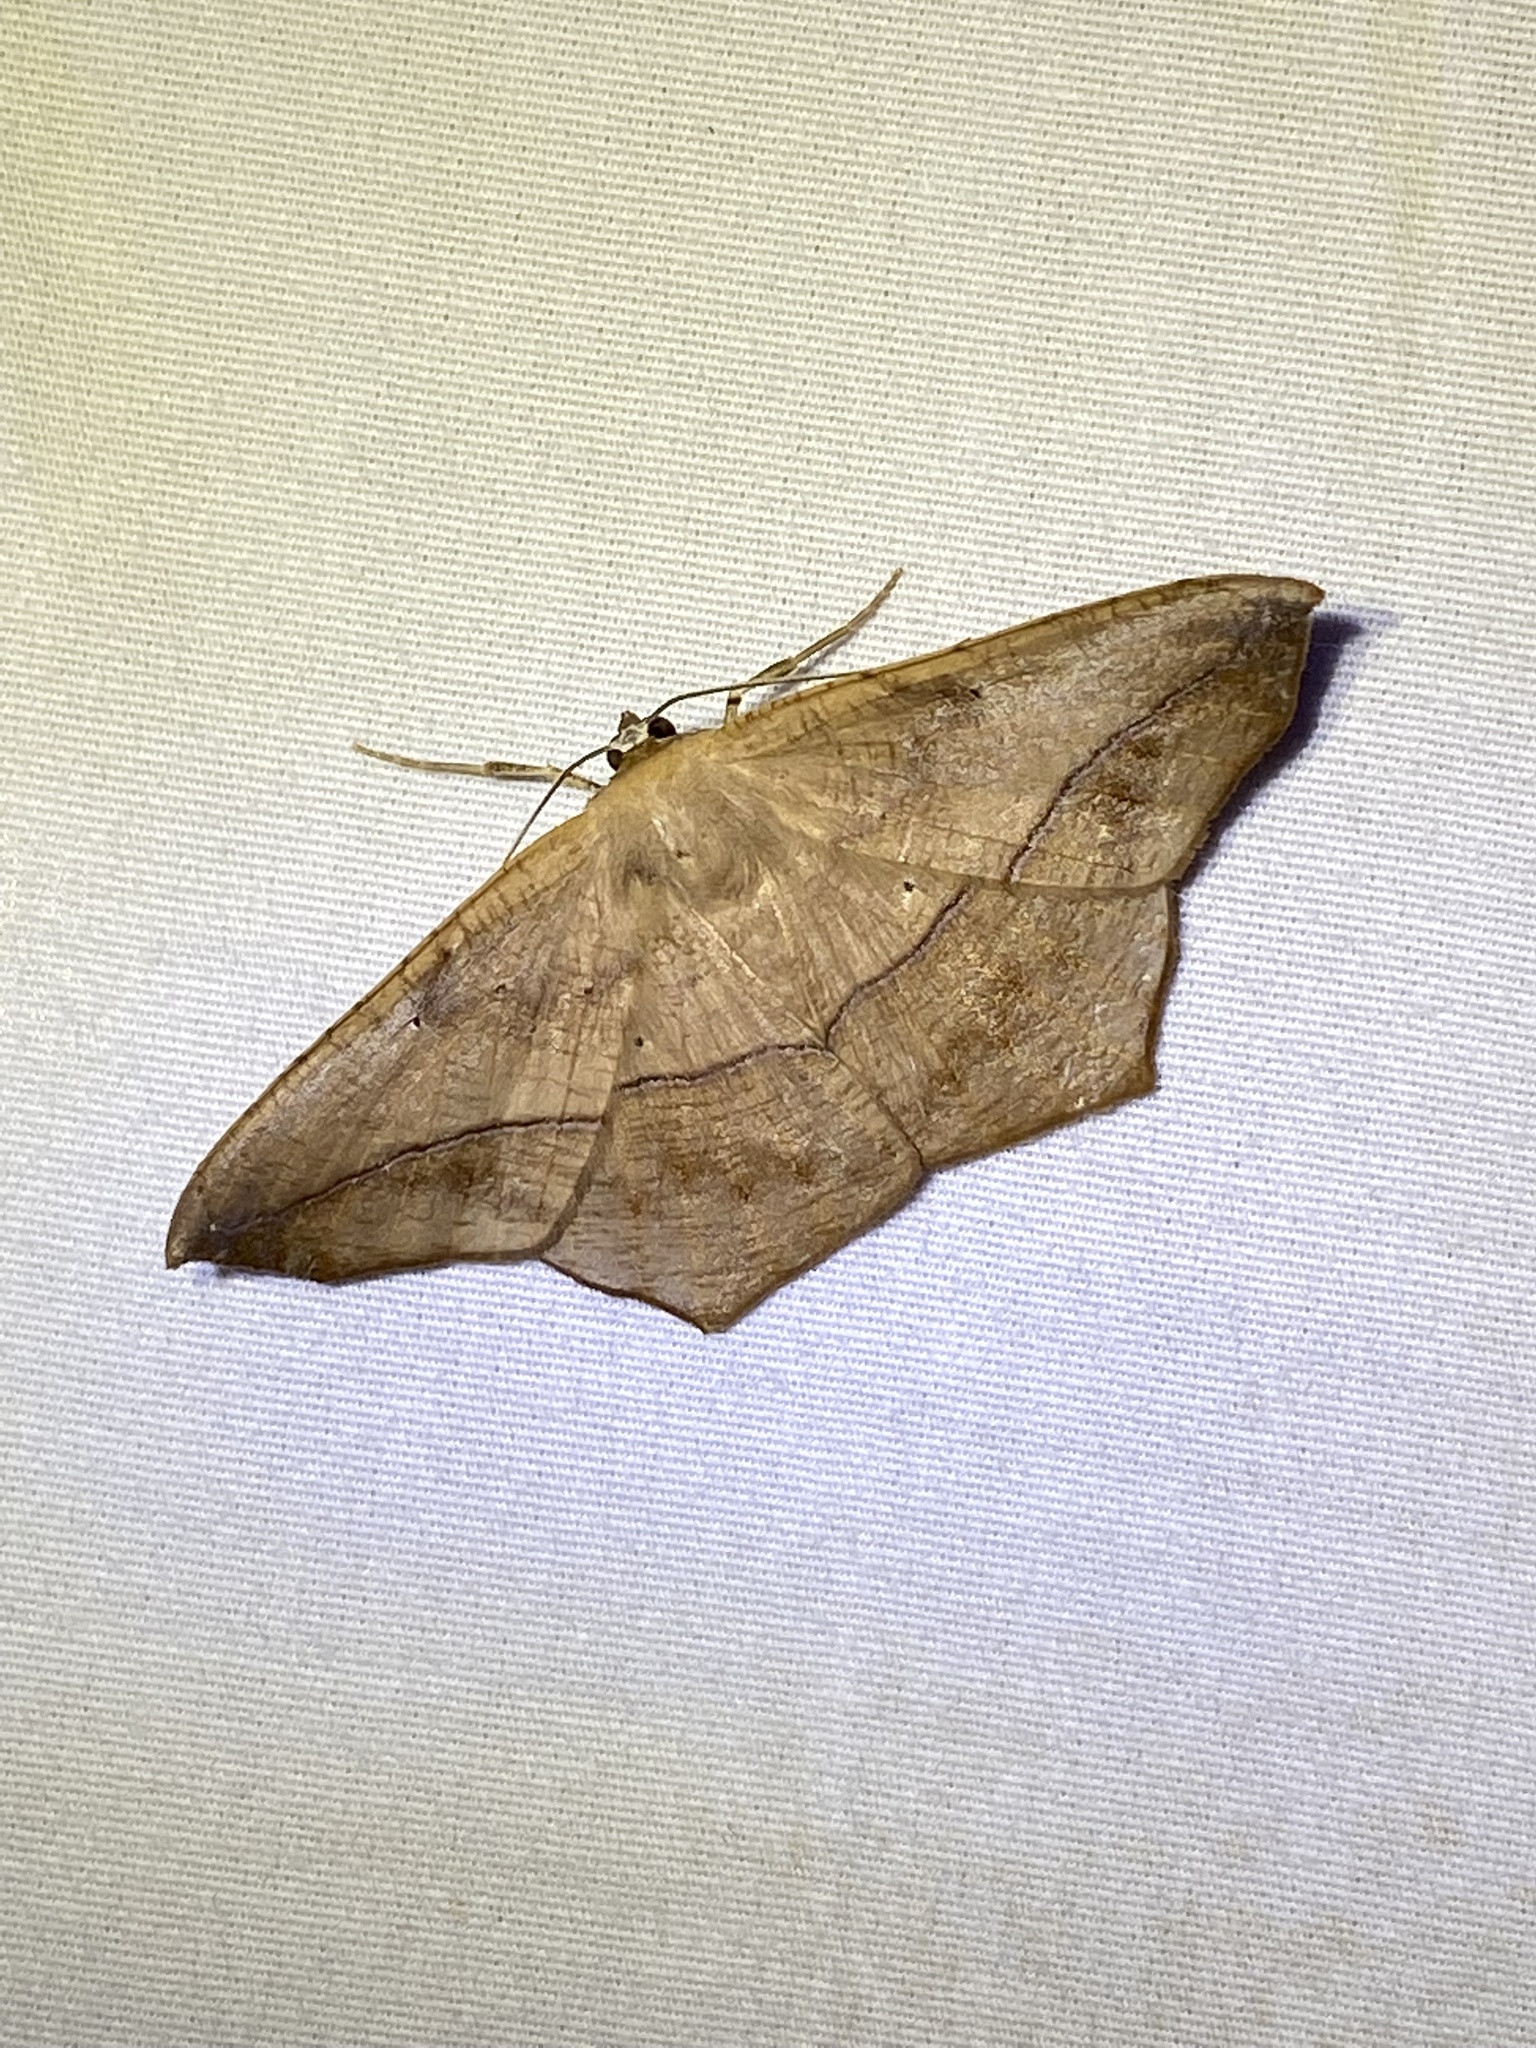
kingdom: Animalia
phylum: Arthropoda
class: Insecta
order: Lepidoptera
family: Geometridae
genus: Prochoerodes
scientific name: Prochoerodes lineola
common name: Large maple spanworm
